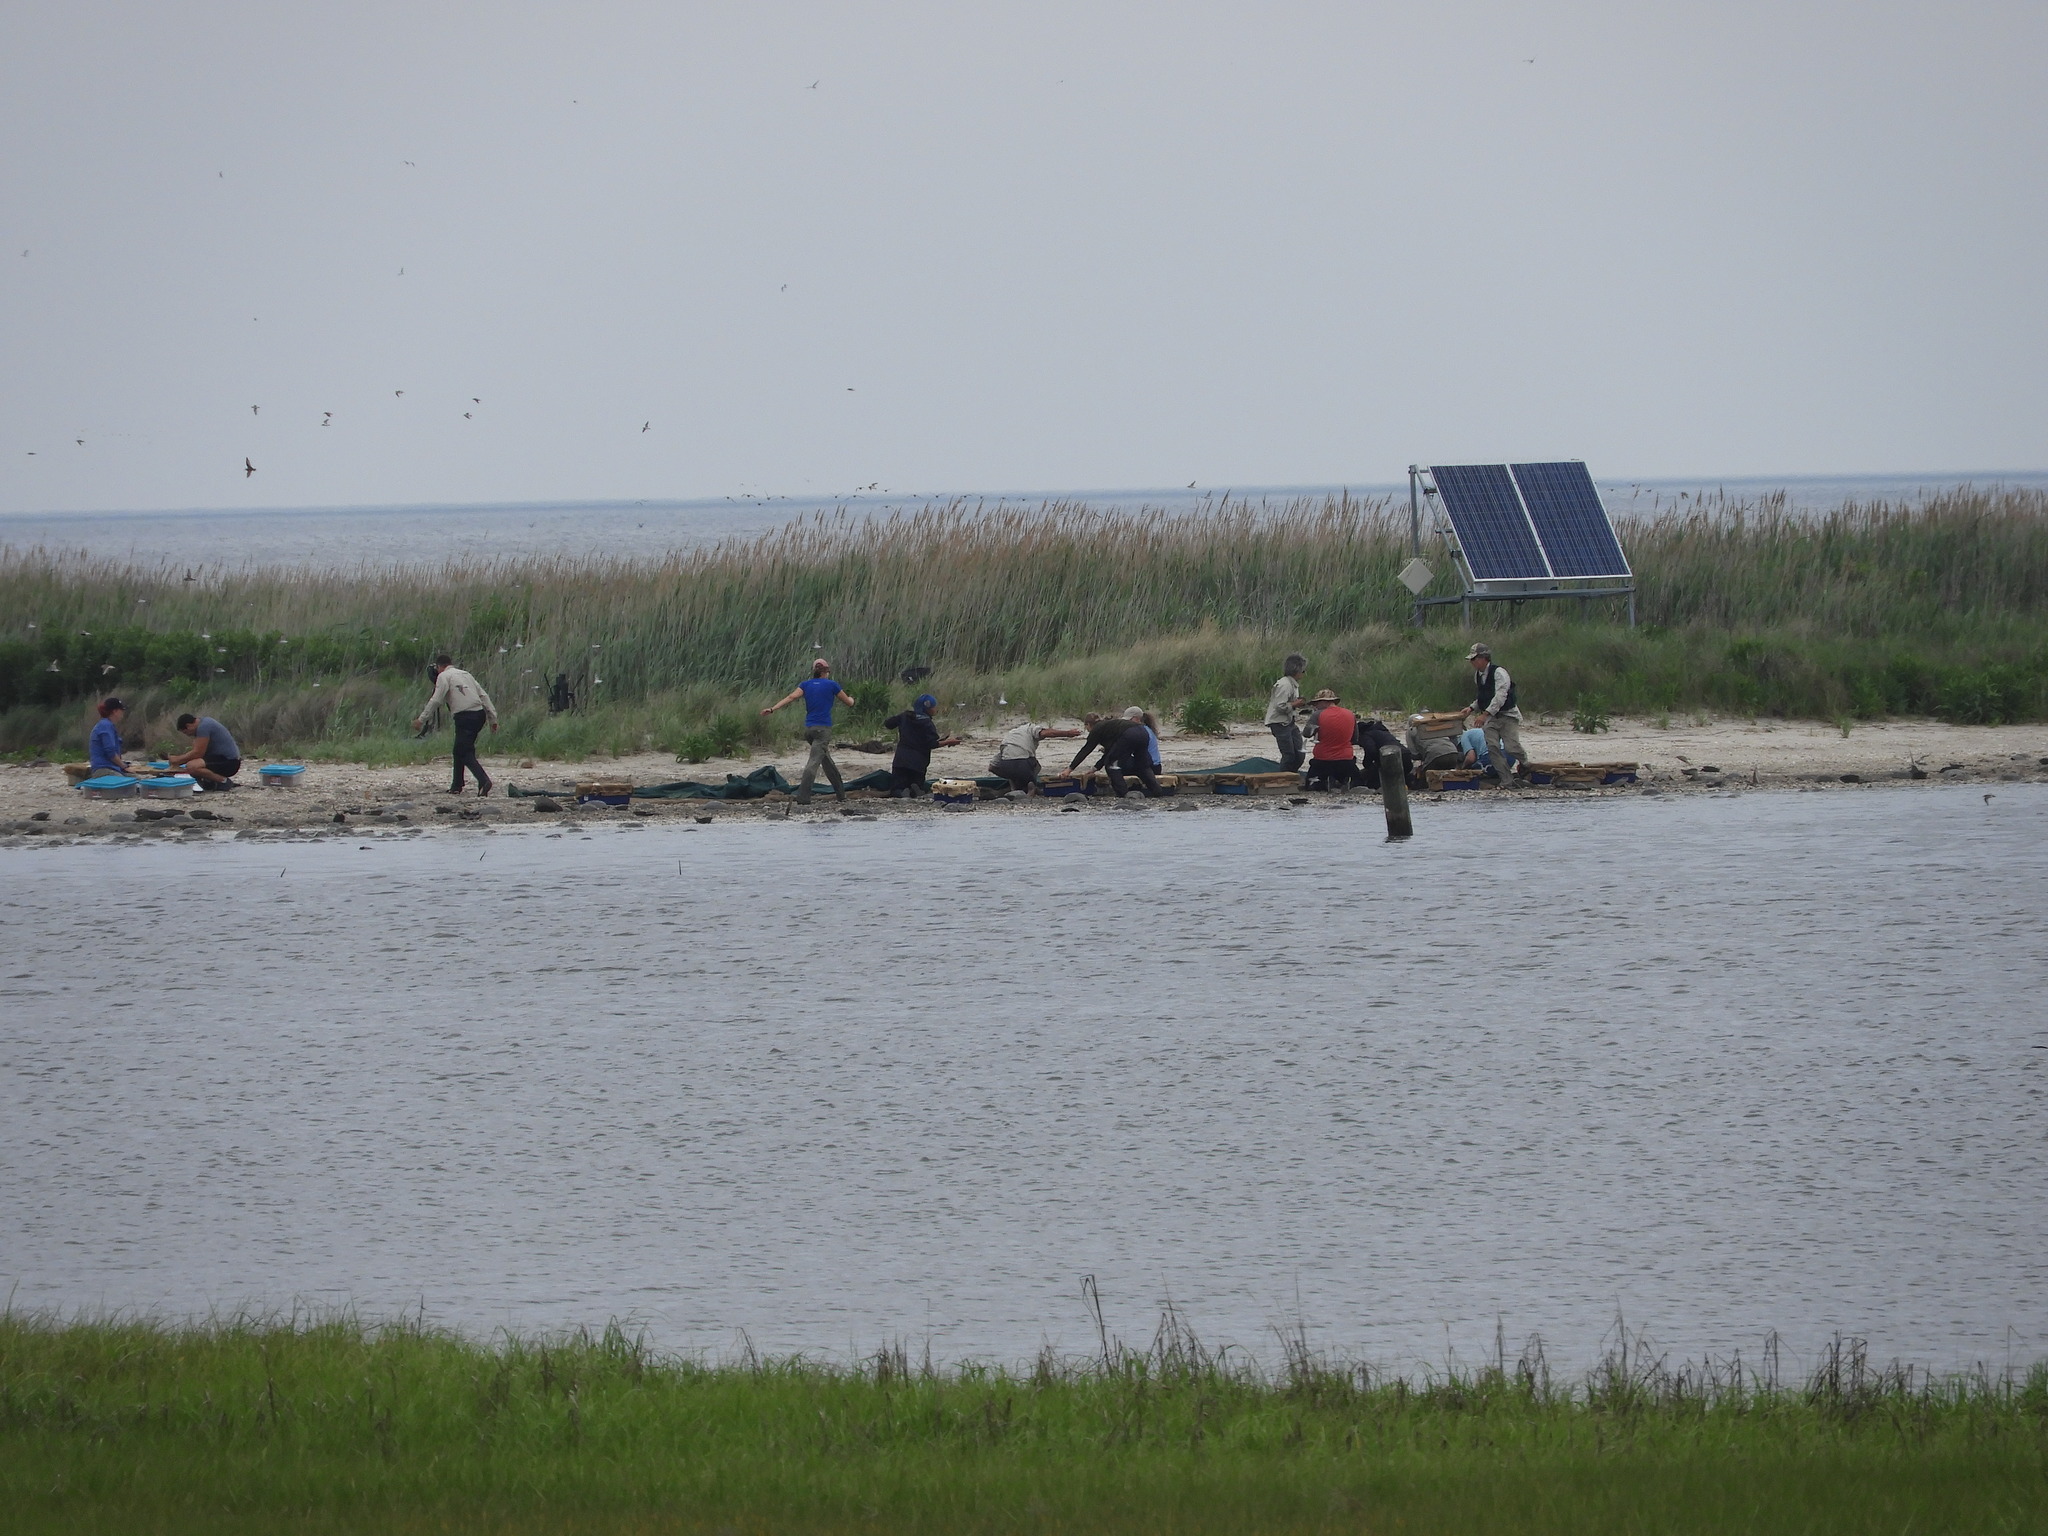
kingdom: Animalia
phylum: Chordata
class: Aves
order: Charadriiformes
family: Scolopacidae
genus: Calidris
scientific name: Calidris canutus
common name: Red knot
